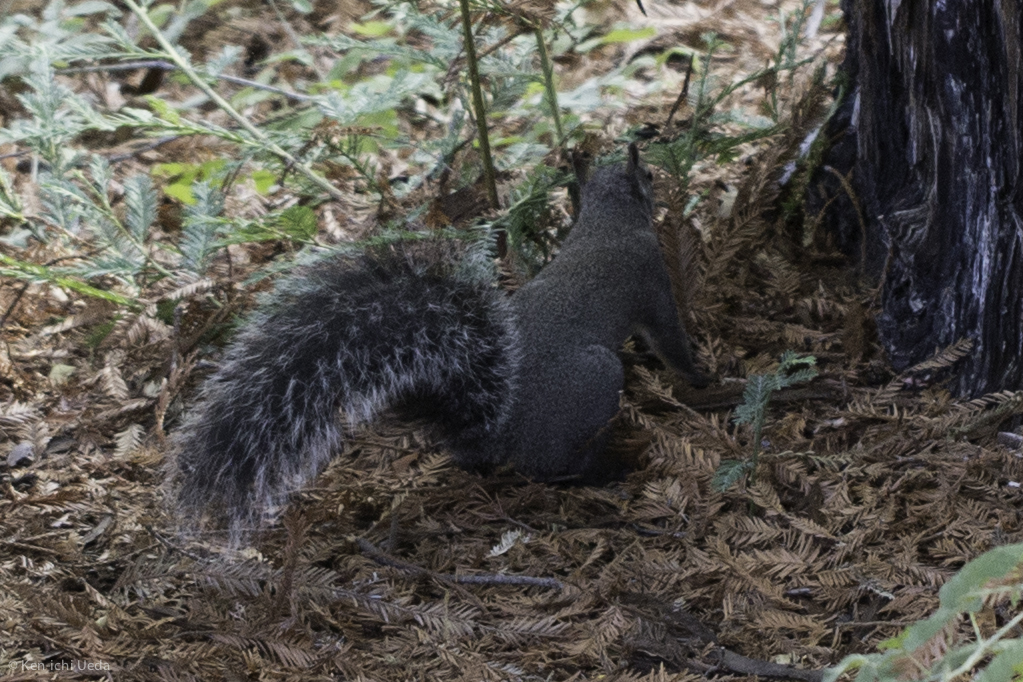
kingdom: Animalia
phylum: Chordata
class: Mammalia
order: Rodentia
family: Sciuridae
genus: Sciurus
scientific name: Sciurus griseus
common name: Western gray squirrel
